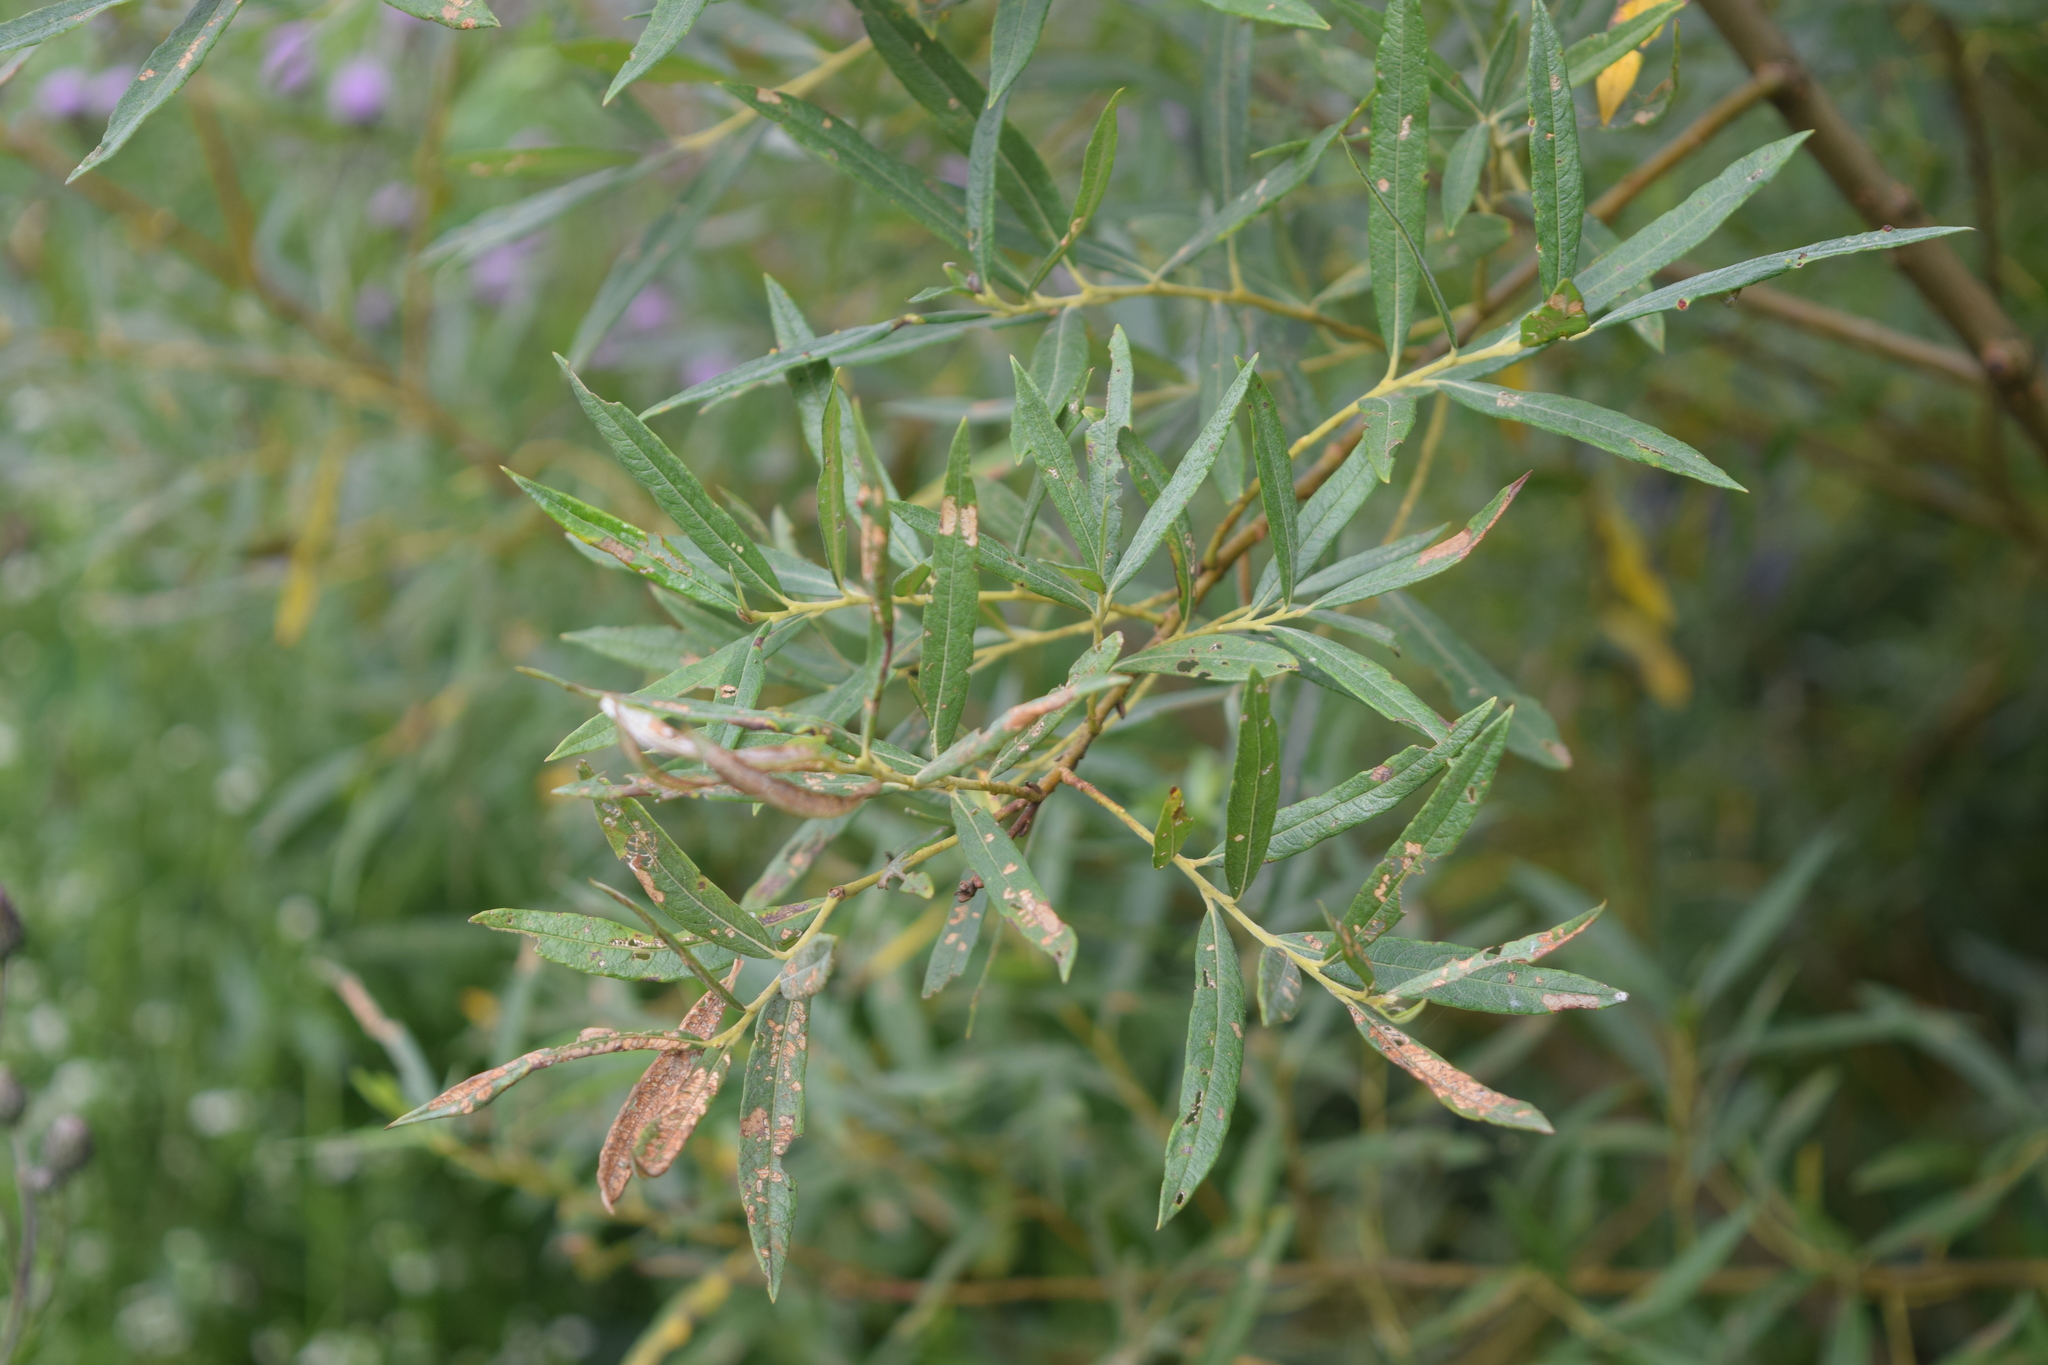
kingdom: Plantae
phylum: Tracheophyta
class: Magnoliopsida
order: Malpighiales
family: Salicaceae
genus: Salix
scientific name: Salix viminalis
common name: Osier
